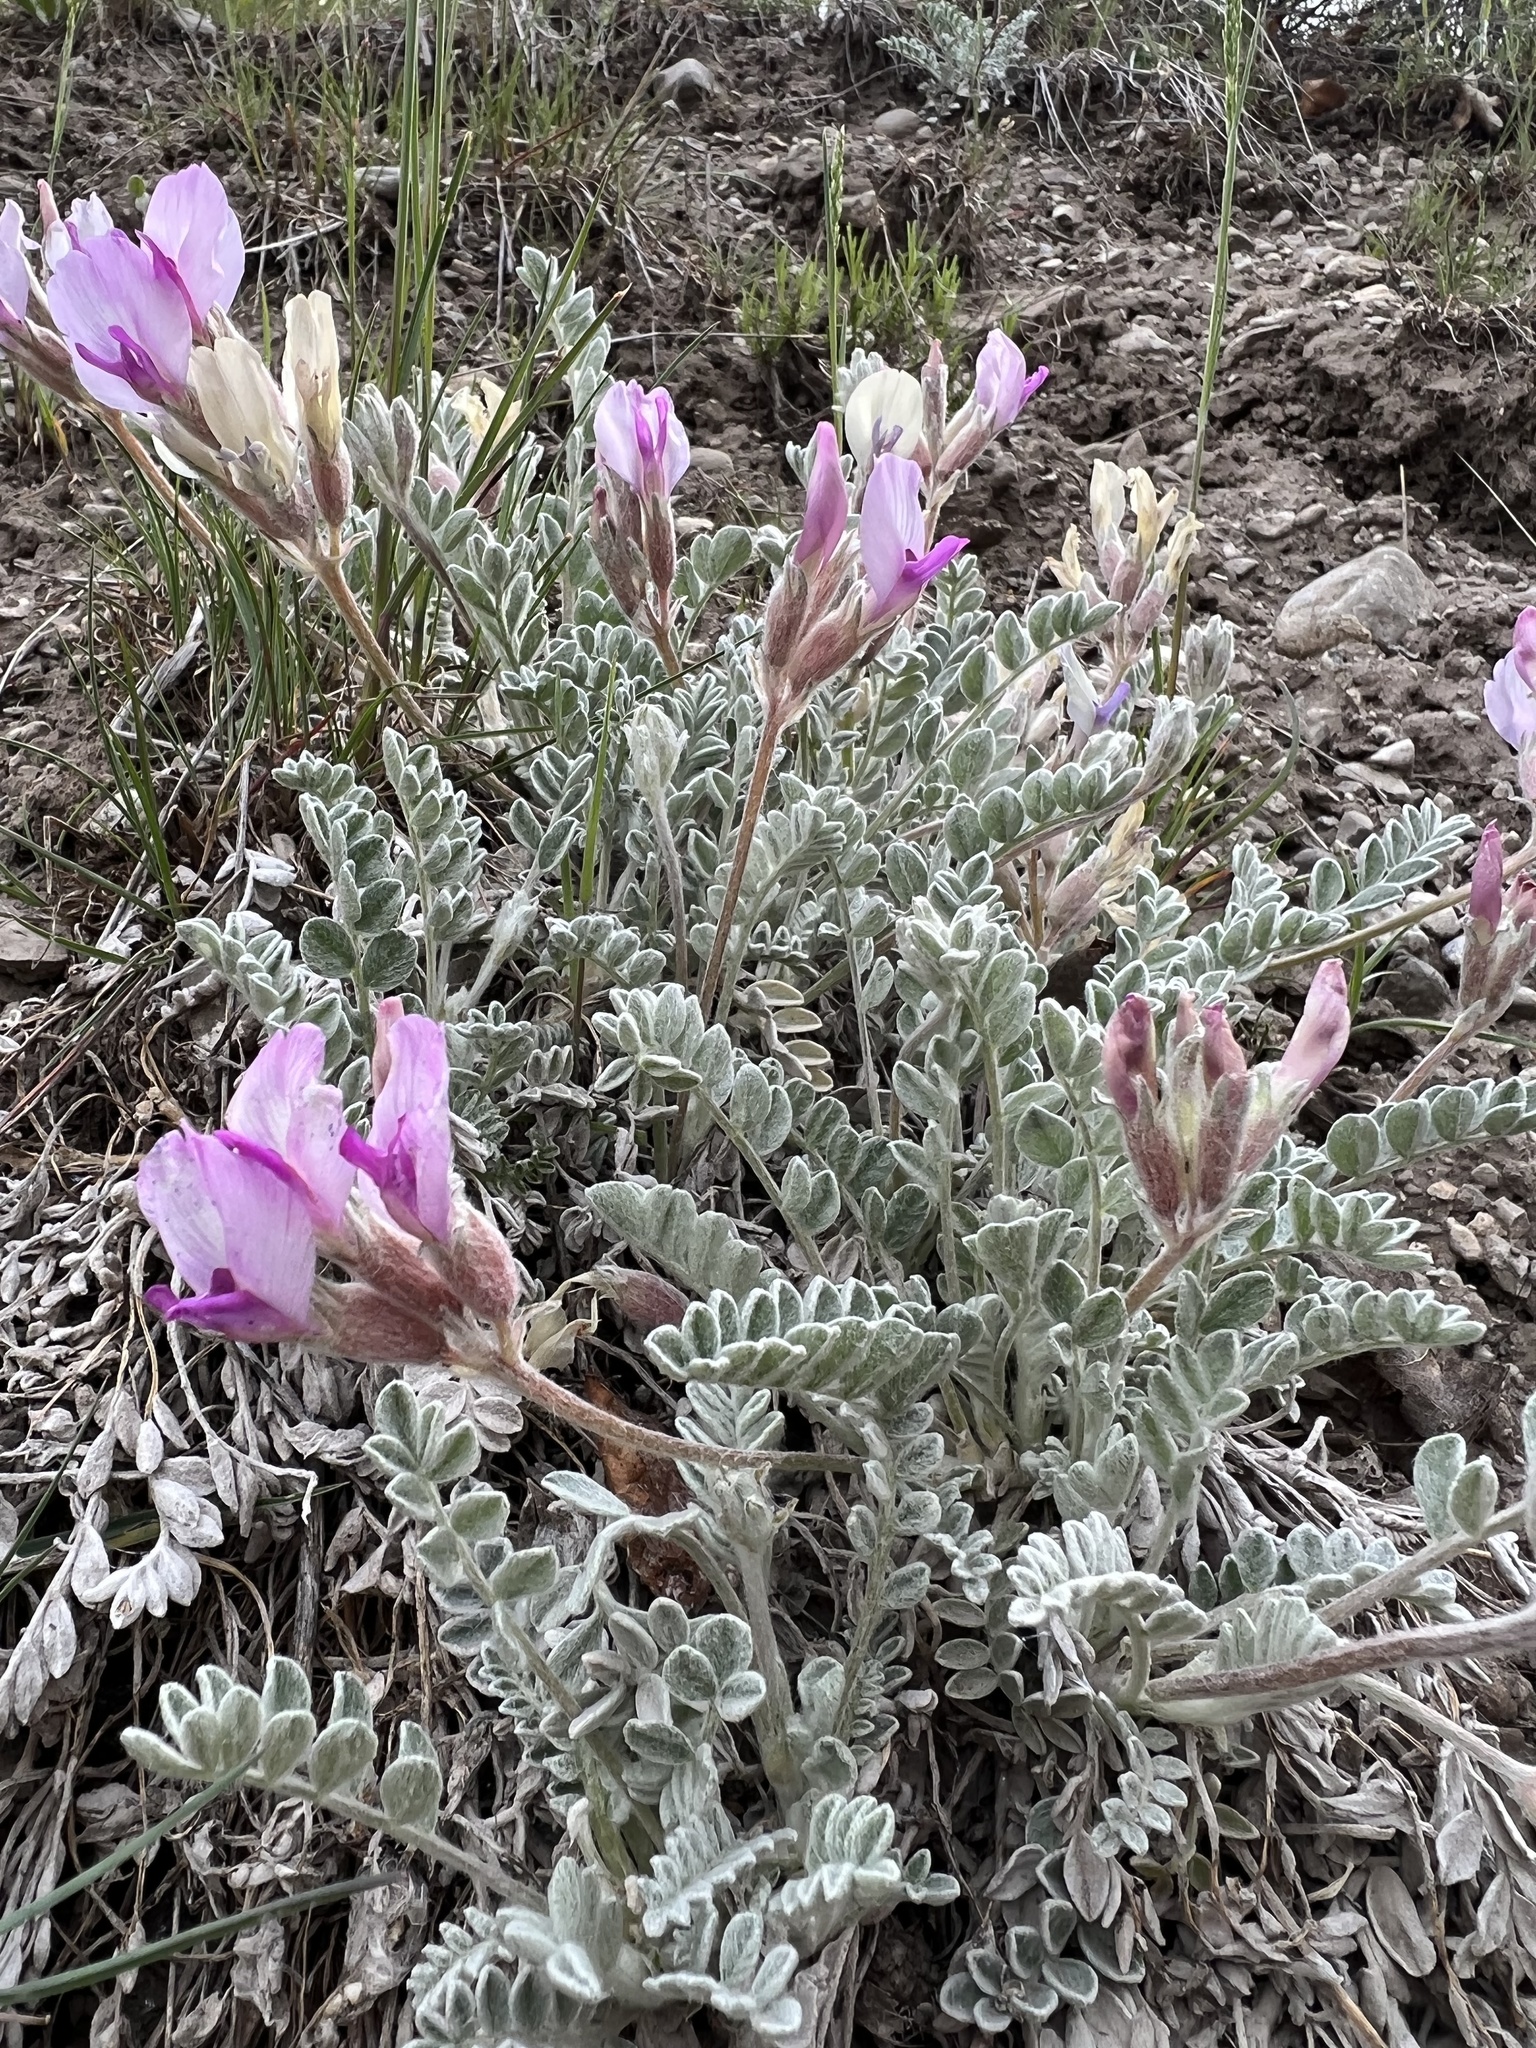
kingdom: Plantae
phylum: Tracheophyta
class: Magnoliopsida
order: Fabales
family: Fabaceae
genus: Astragalus
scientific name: Astragalus utahensis
